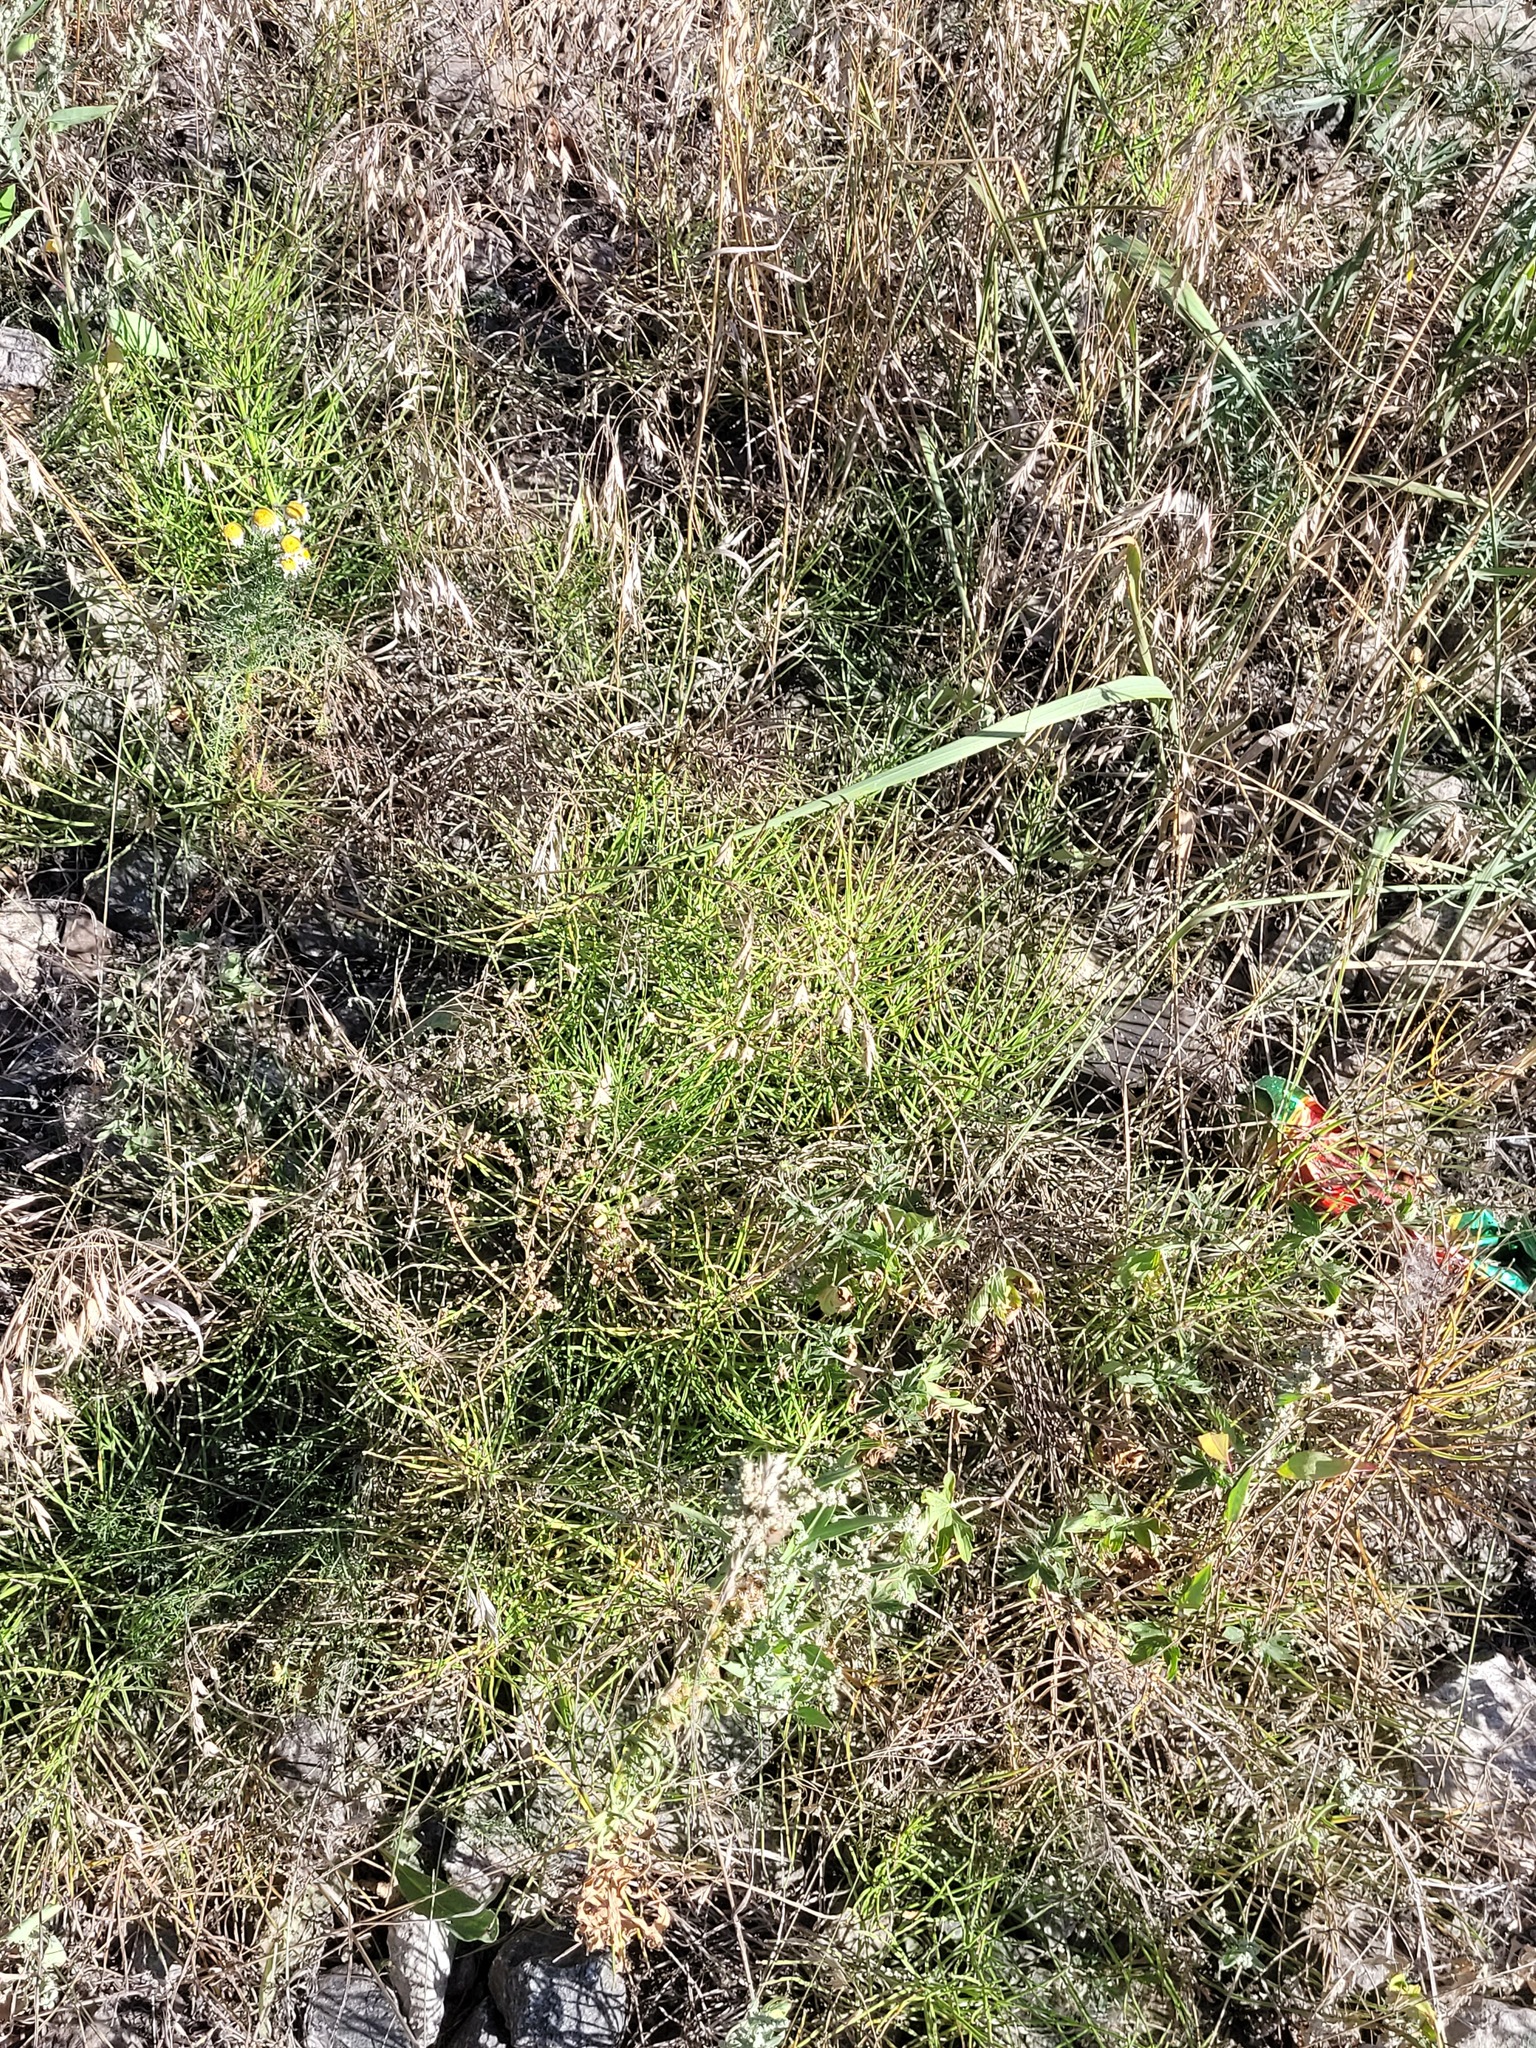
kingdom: Plantae
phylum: Tracheophyta
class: Polypodiopsida
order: Equisetales
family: Equisetaceae
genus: Equisetum
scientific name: Equisetum arvense
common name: Field horsetail
